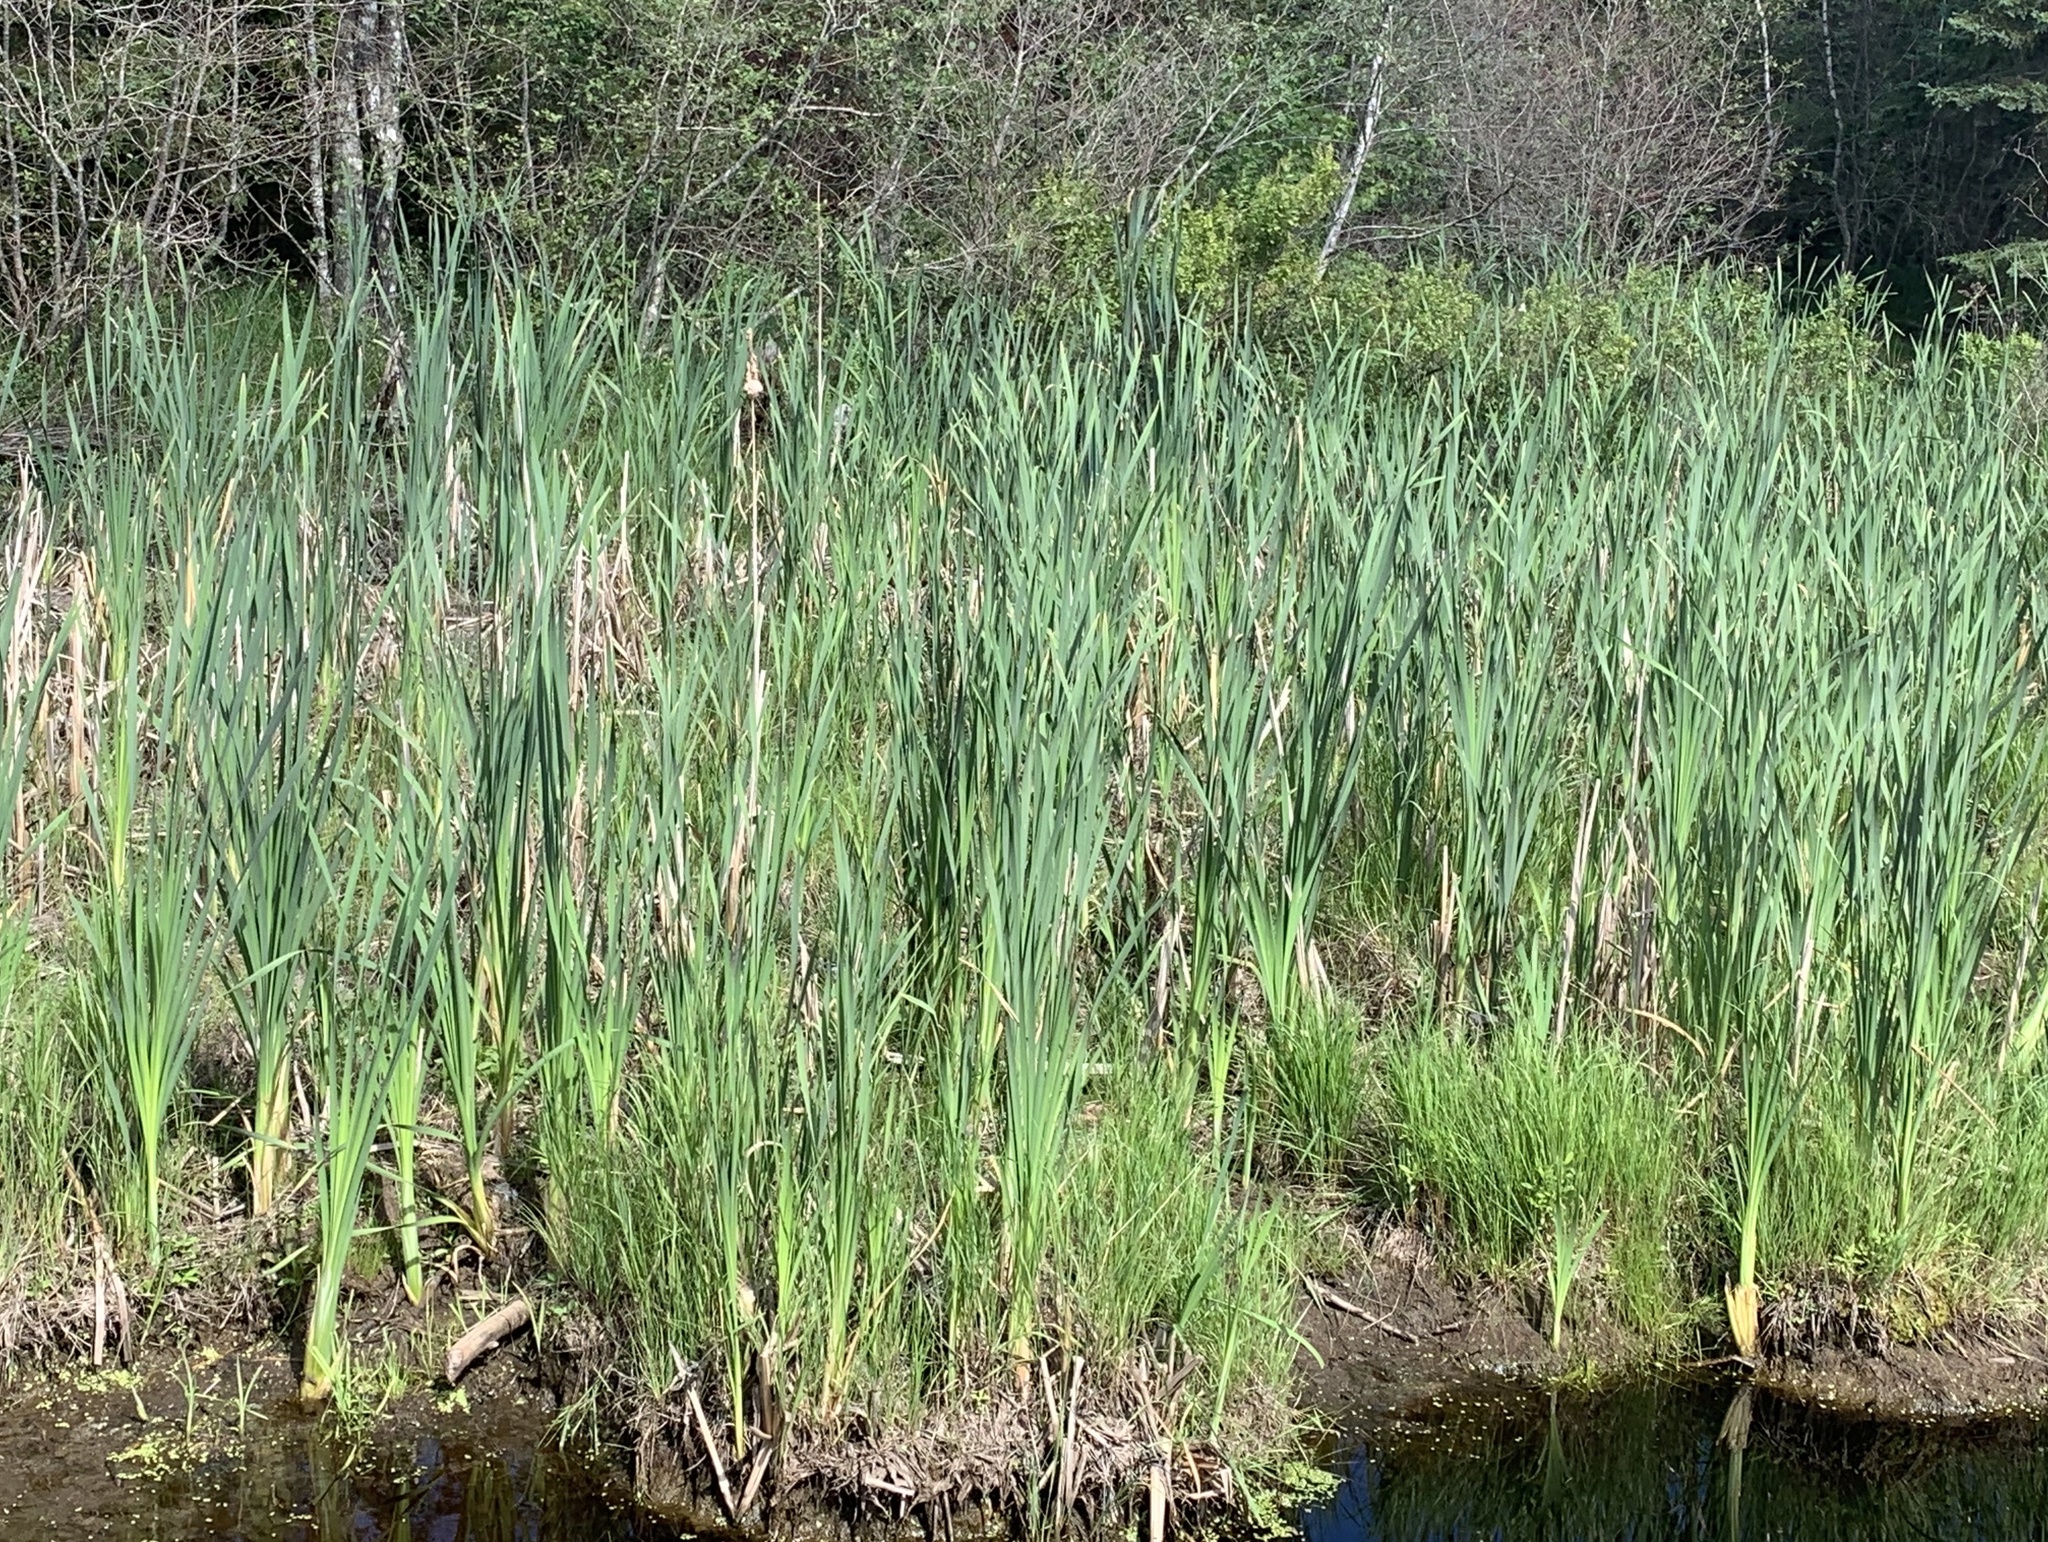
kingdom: Plantae
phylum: Tracheophyta
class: Liliopsida
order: Poales
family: Typhaceae
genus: Typha
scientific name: Typha latifolia
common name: Broadleaf cattail
